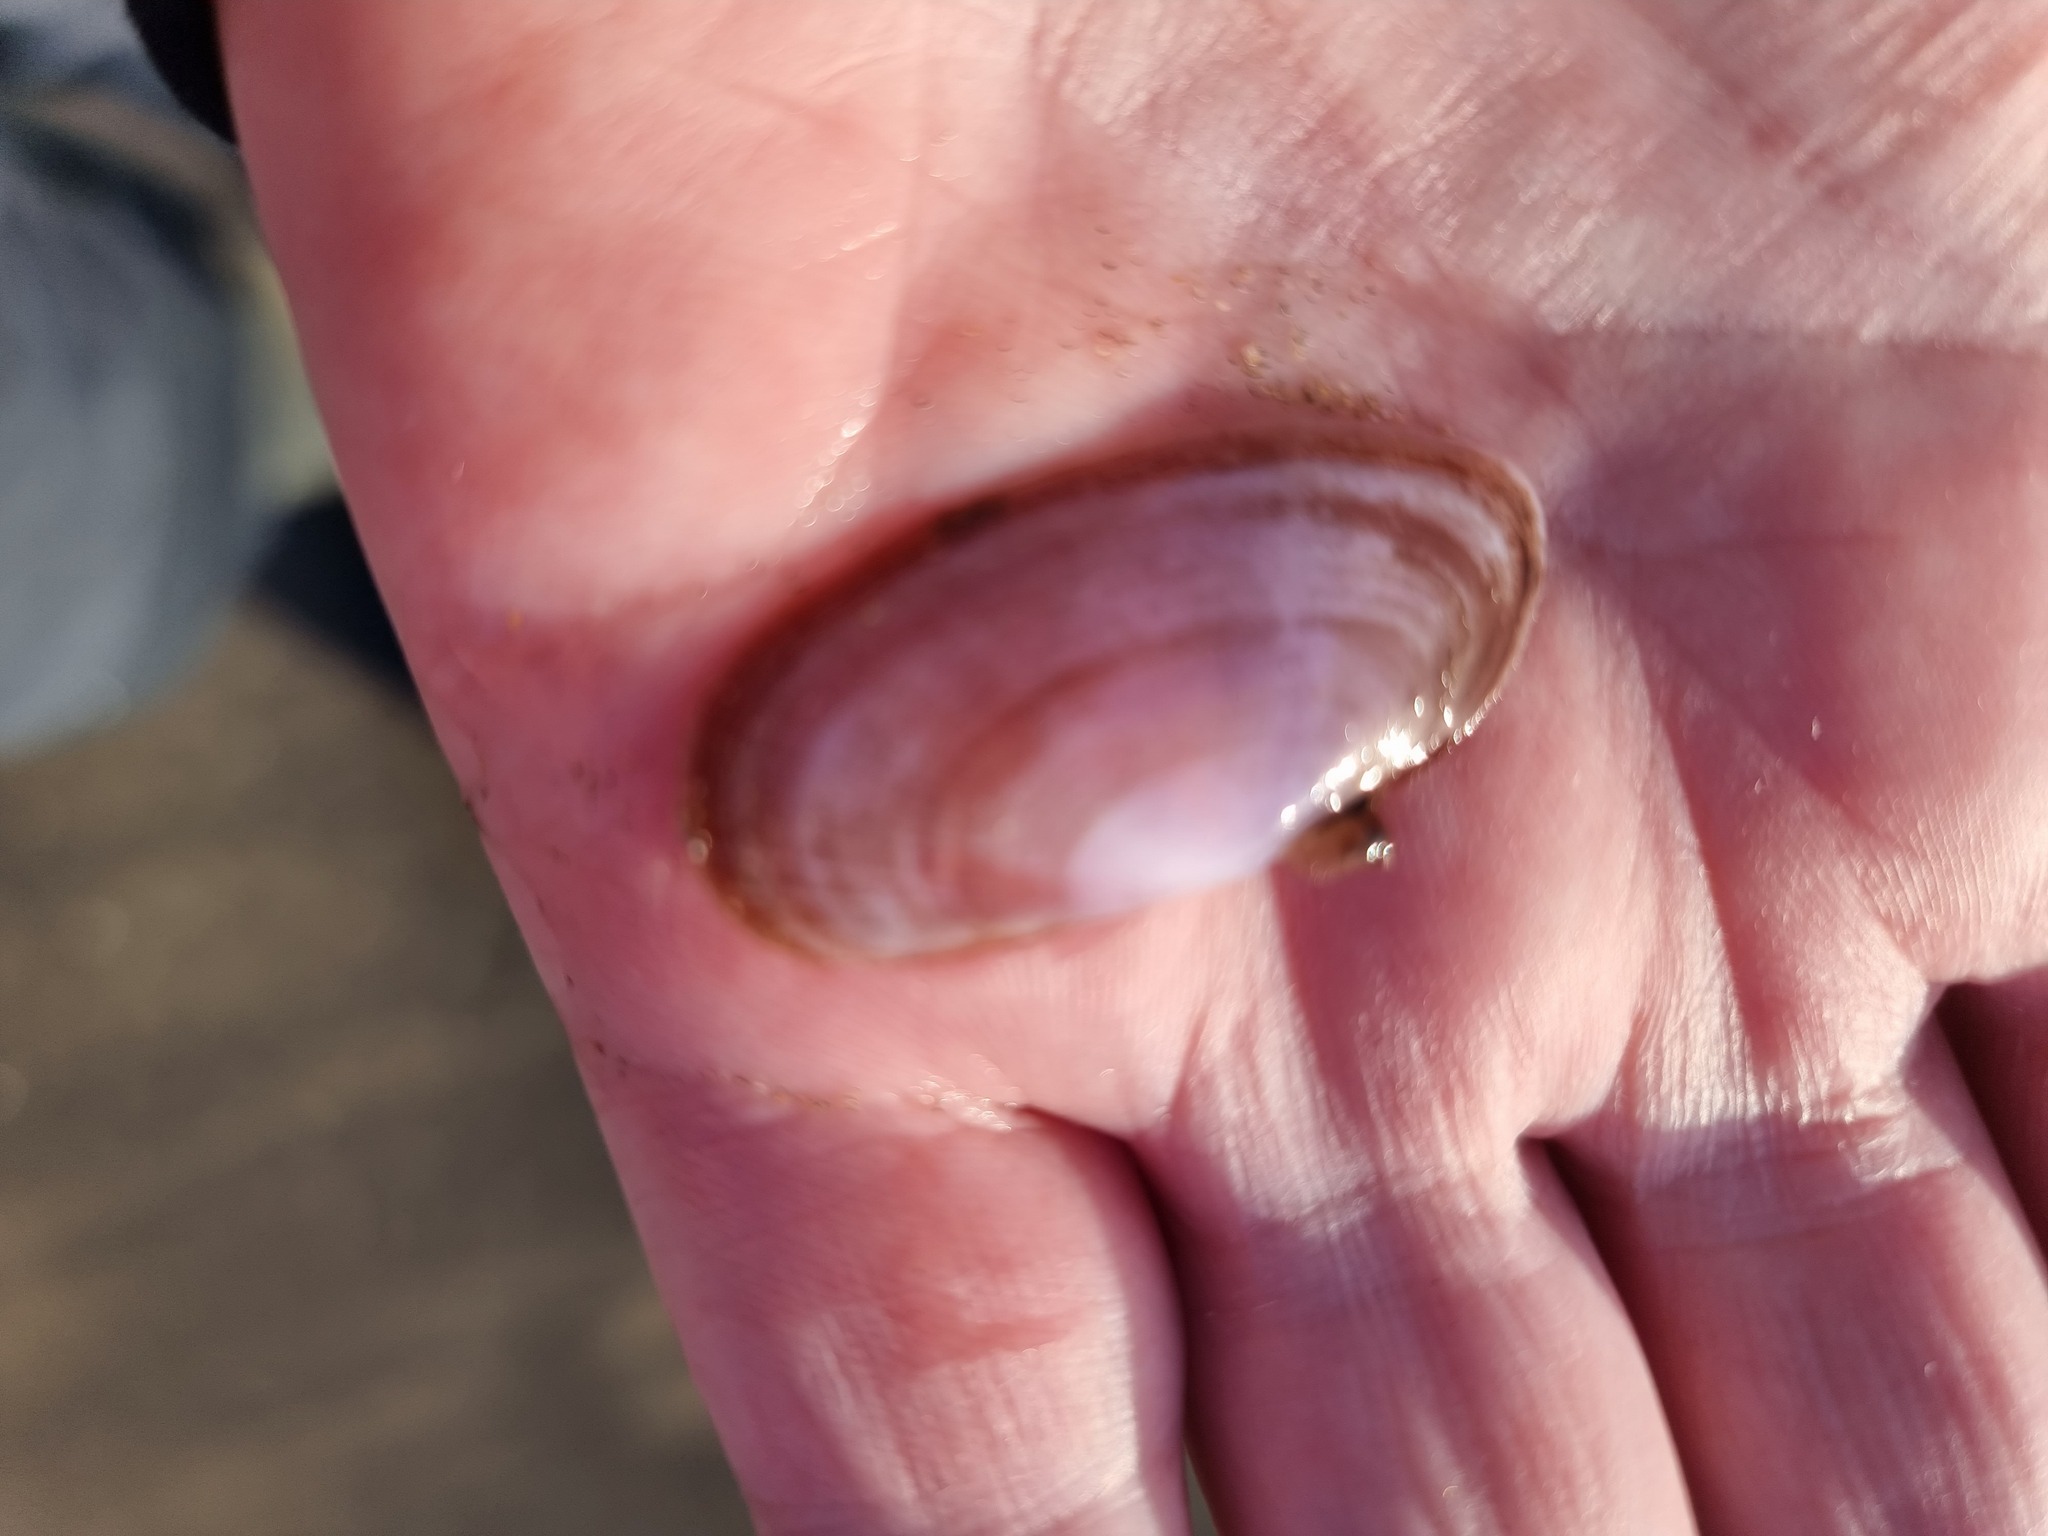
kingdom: Animalia
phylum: Mollusca
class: Bivalvia
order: Cardiida
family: Psammobiidae
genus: Hiatula
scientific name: Hiatula nitida
